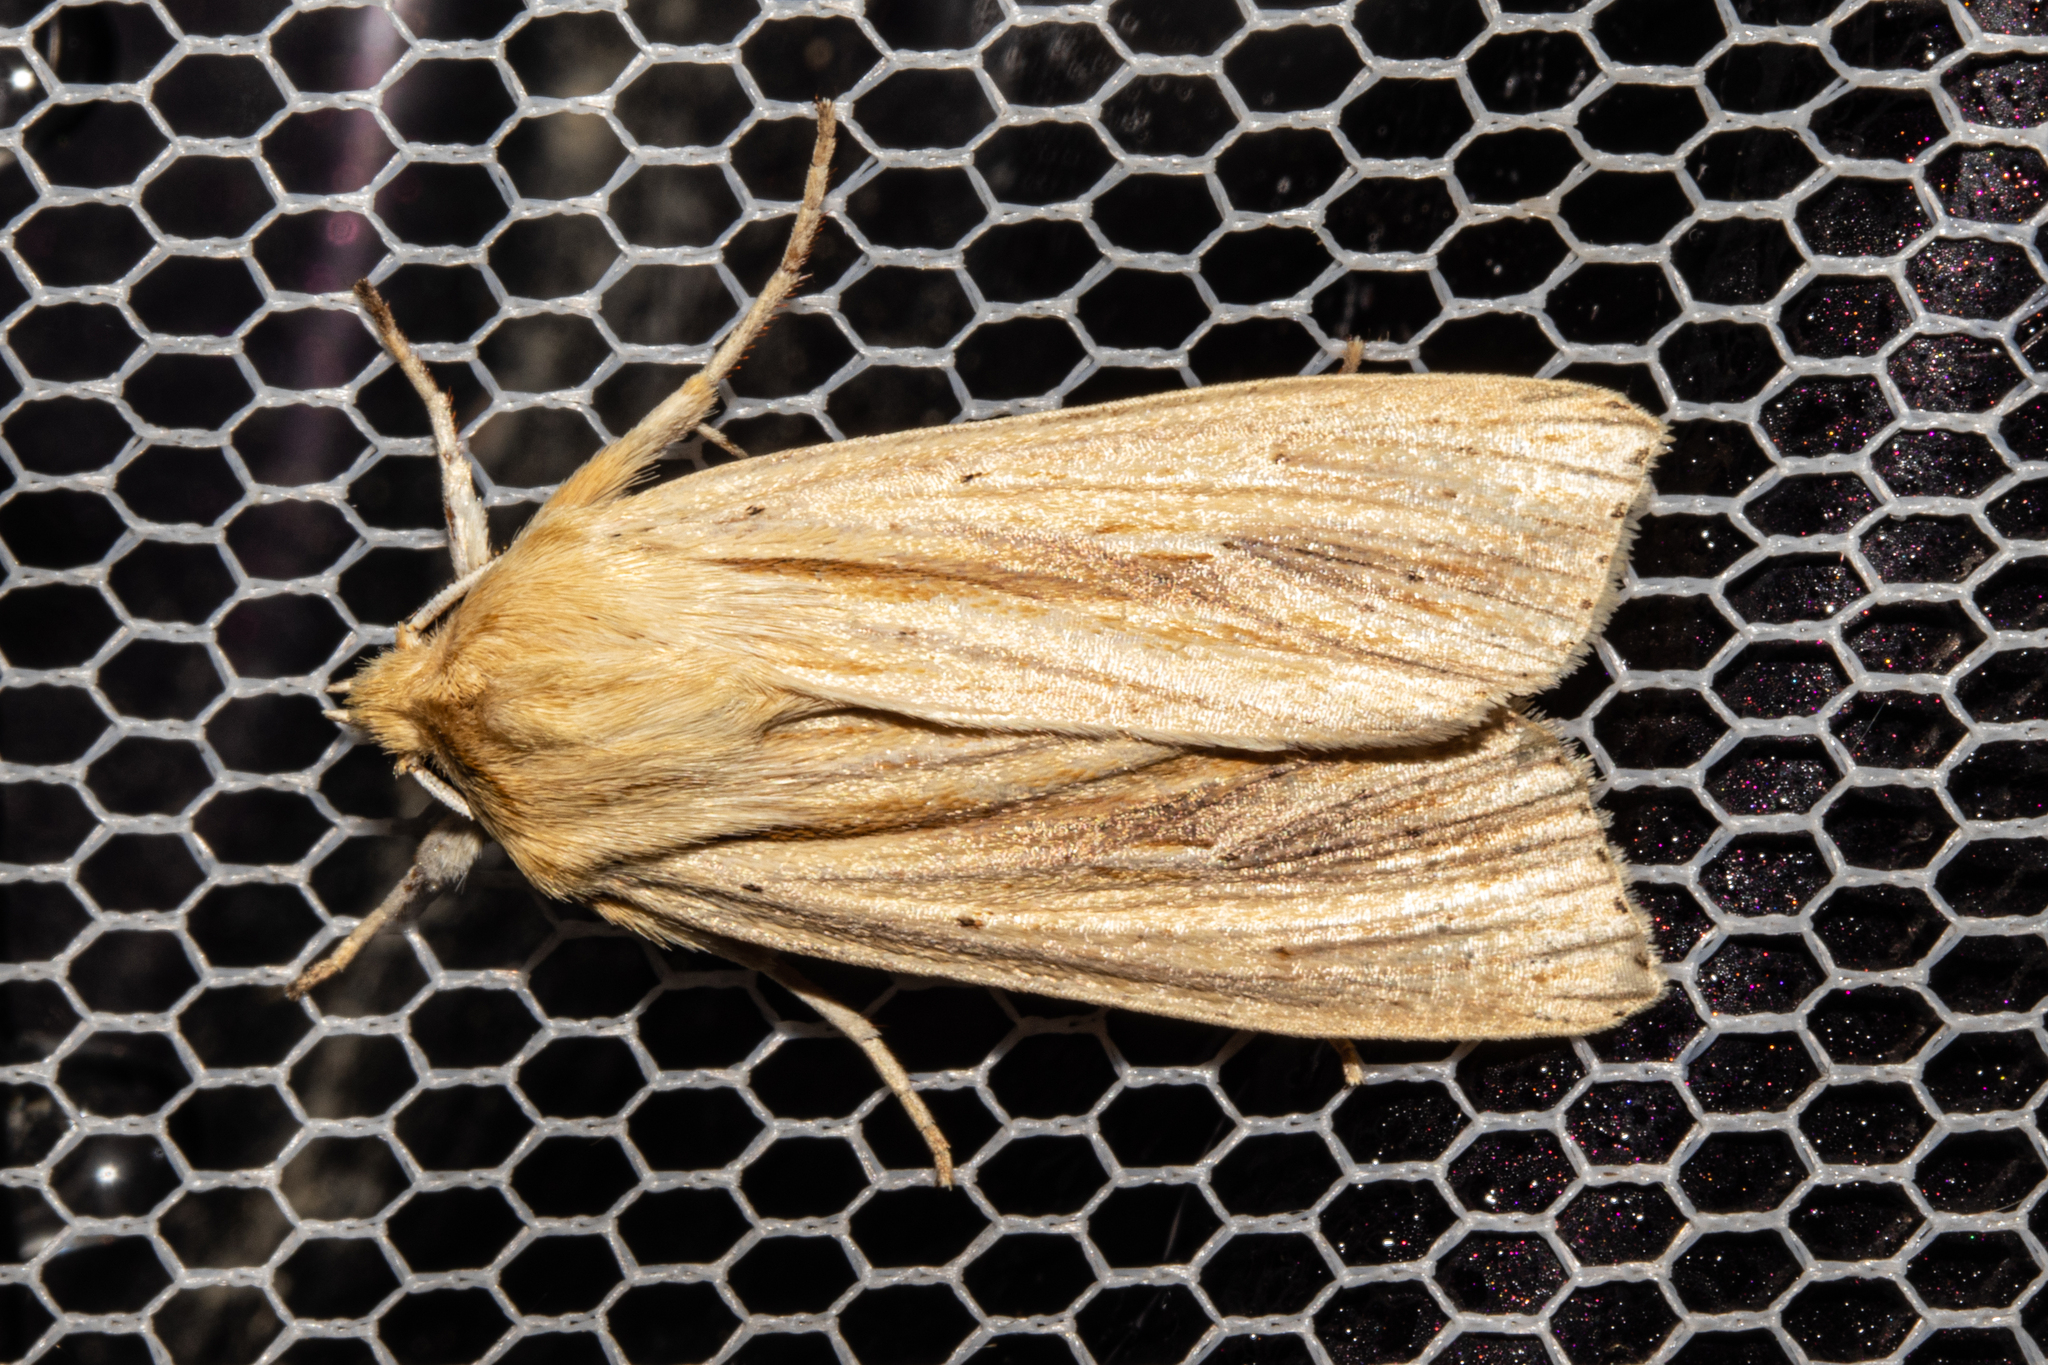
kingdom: Animalia
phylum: Arthropoda
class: Insecta
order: Lepidoptera
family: Noctuidae
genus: Ichneutica
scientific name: Ichneutica semivittata
